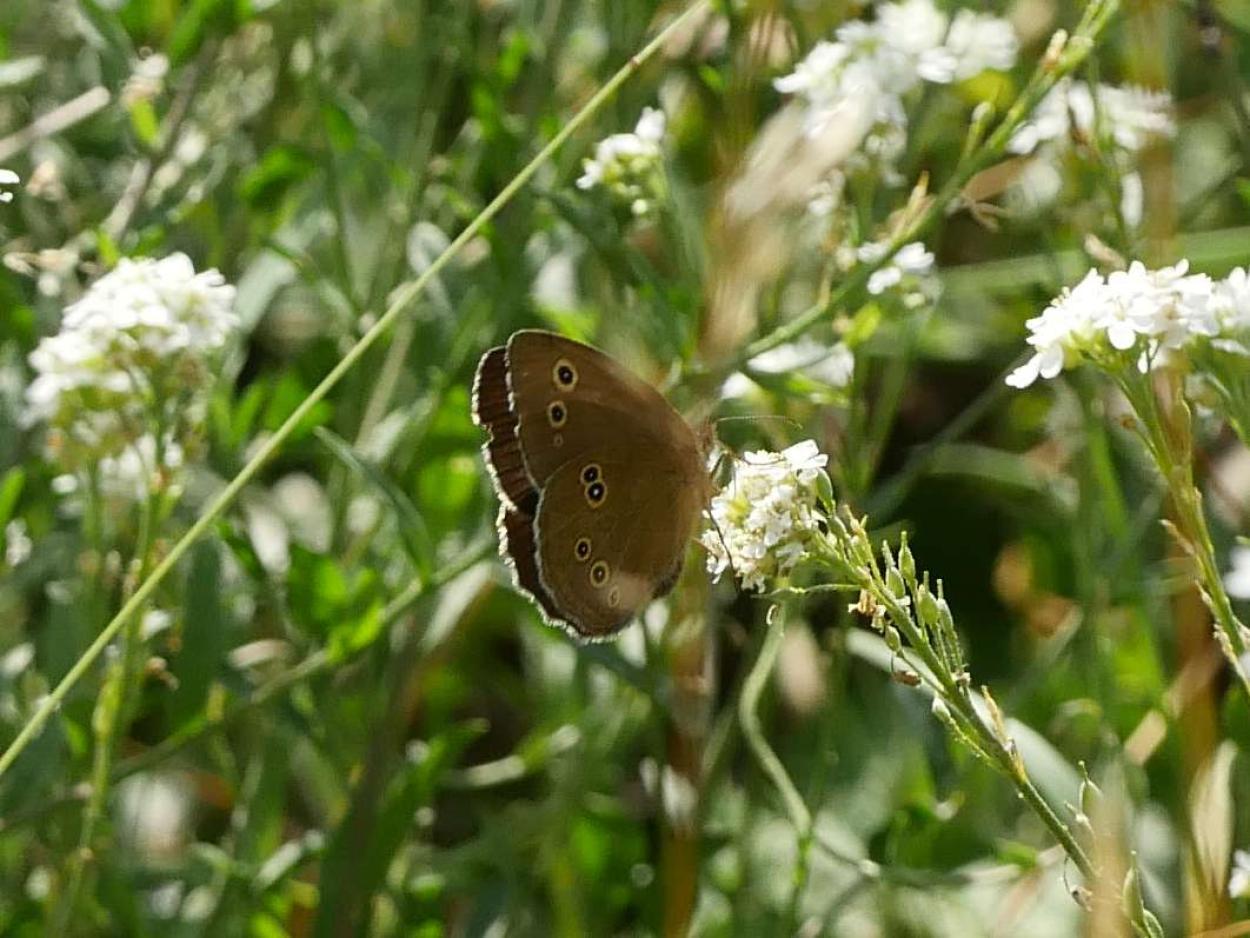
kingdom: Animalia
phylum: Arthropoda
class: Insecta
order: Lepidoptera
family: Nymphalidae
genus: Aphantopus
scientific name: Aphantopus hyperantus
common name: Ringlet
